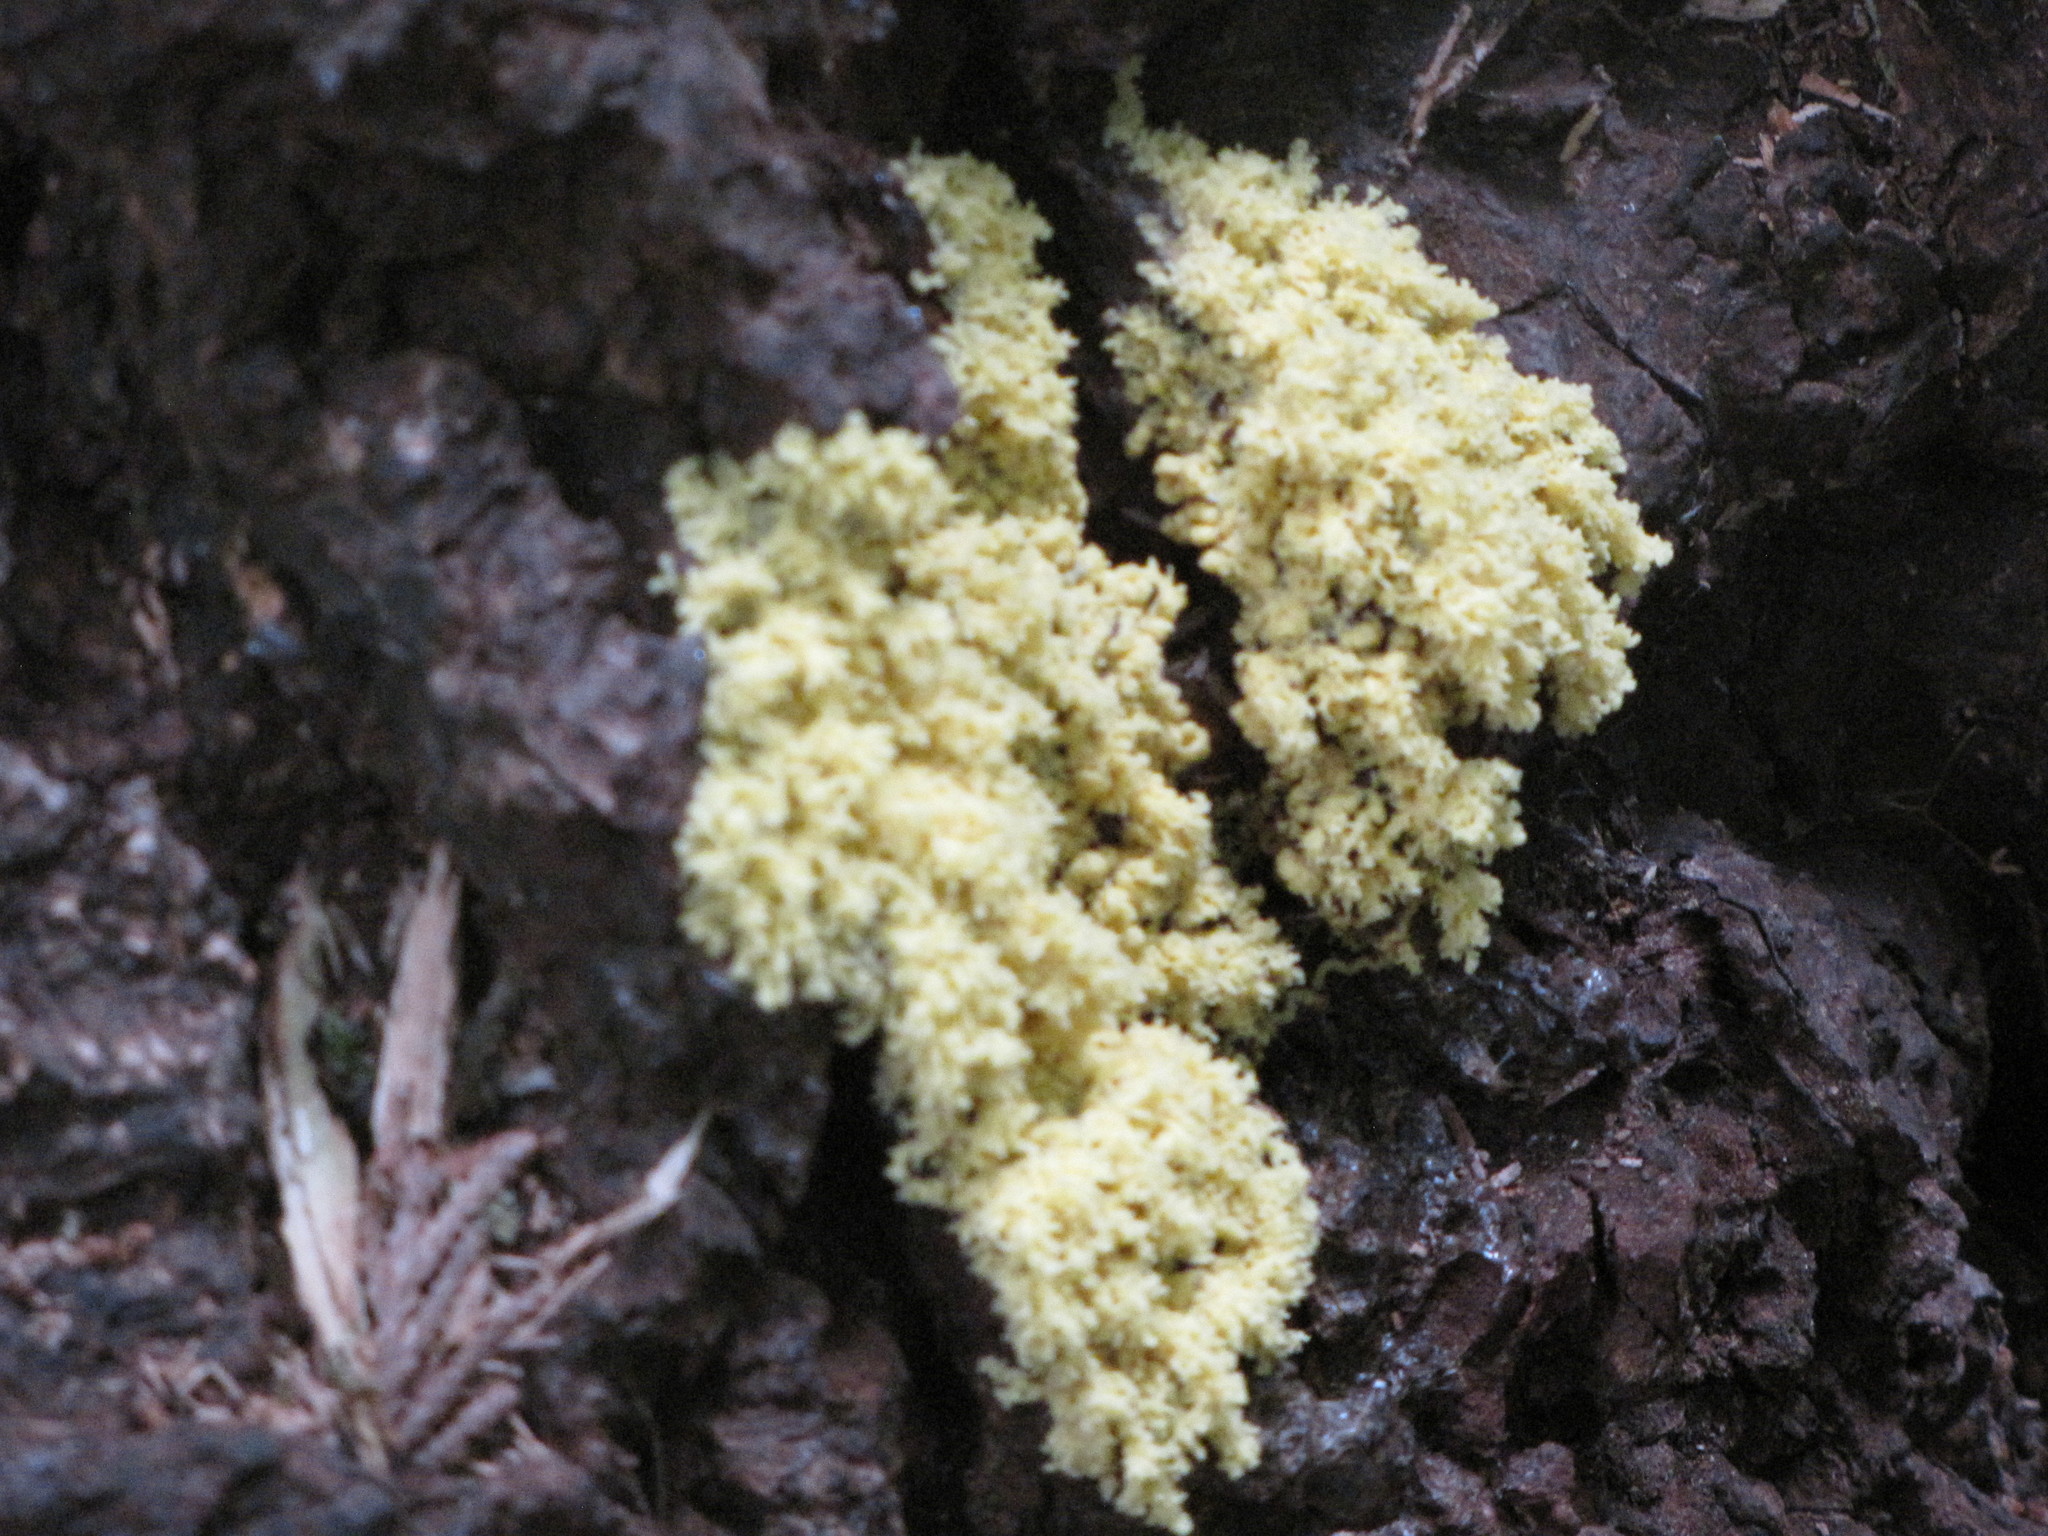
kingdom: Protozoa
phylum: Mycetozoa
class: Myxomycetes
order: Physarales
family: Physaraceae
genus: Fuligo
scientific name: Fuligo septica
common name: Dog vomit slime mold
